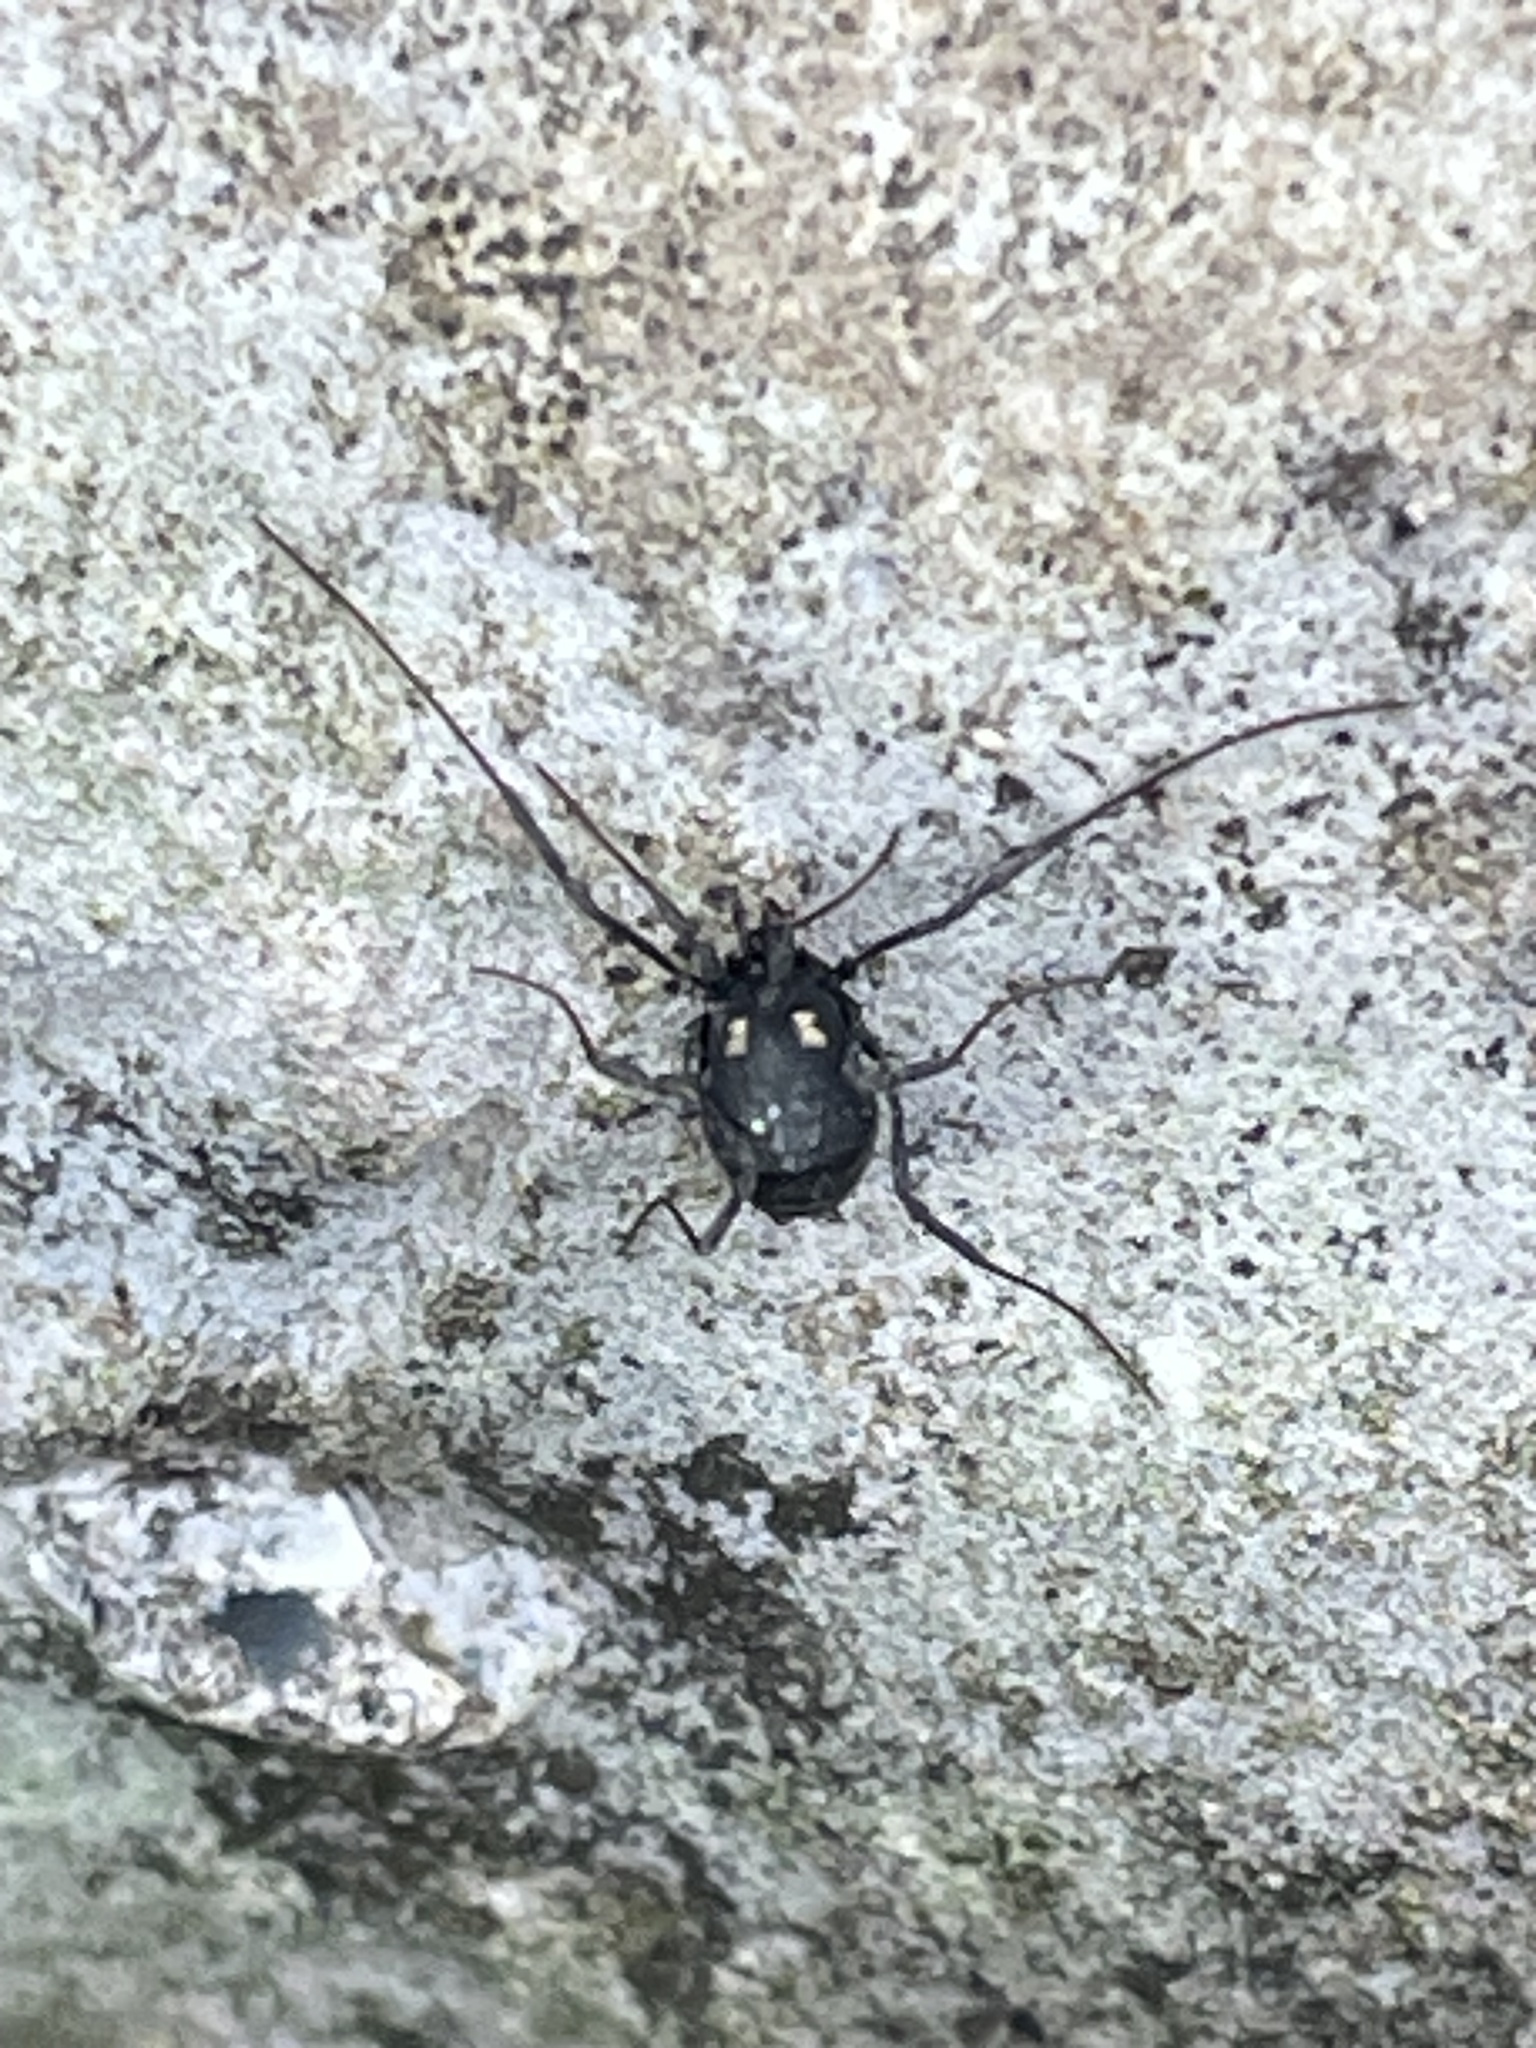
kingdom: Animalia
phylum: Arthropoda
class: Arachnida
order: Opiliones
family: Nemastomatidae
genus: Nemastoma
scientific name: Nemastoma bimaculatum
